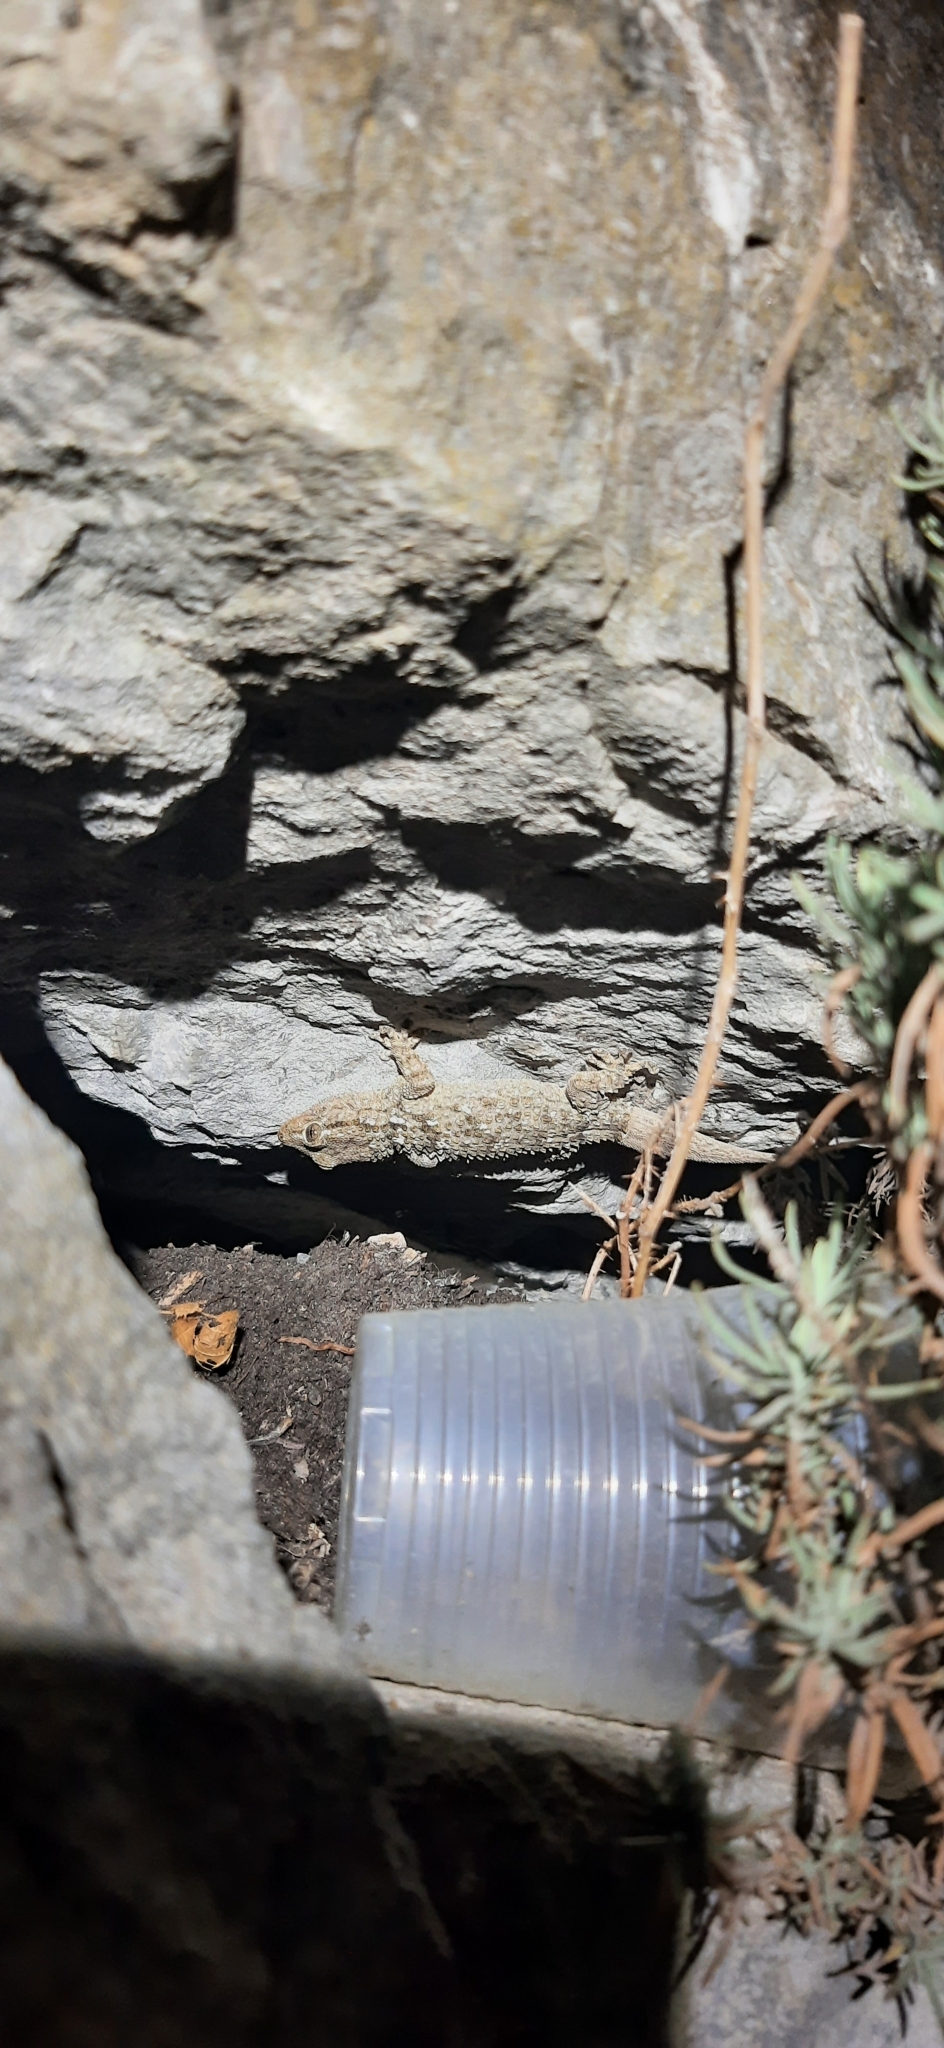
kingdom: Animalia
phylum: Chordata
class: Squamata
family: Phyllodactylidae
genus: Tarentola
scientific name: Tarentola mauritanica
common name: Moorish gecko
